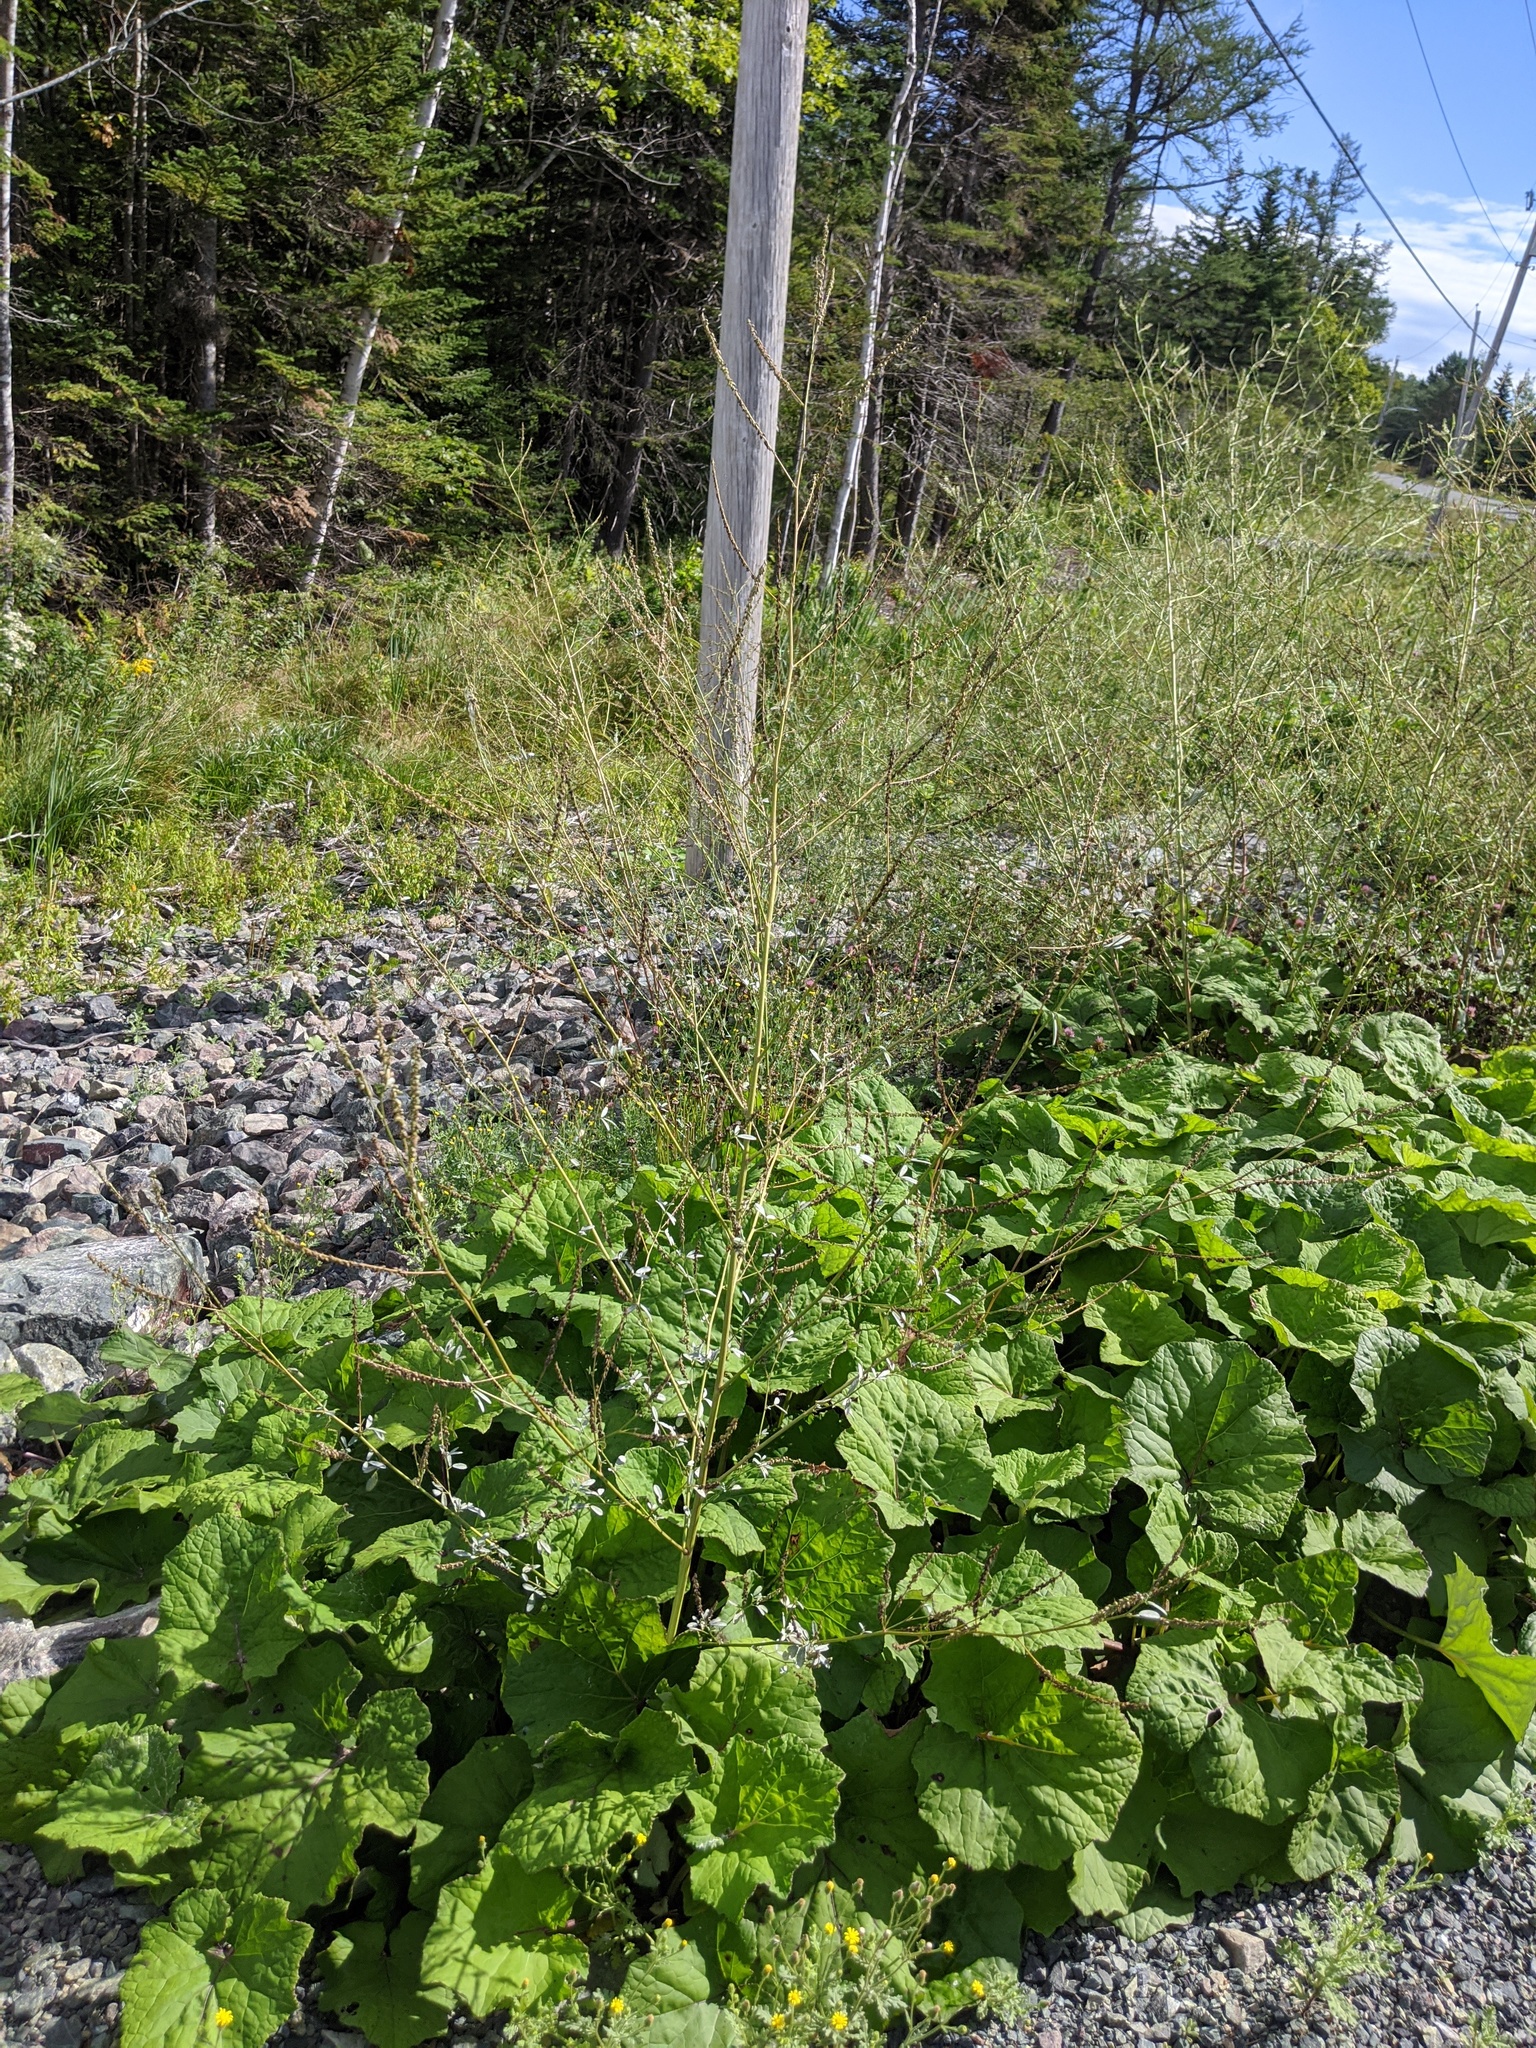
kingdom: Plantae
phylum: Tracheophyta
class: Magnoliopsida
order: Asterales
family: Asteraceae
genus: Tussilago
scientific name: Tussilago farfara
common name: Coltsfoot
